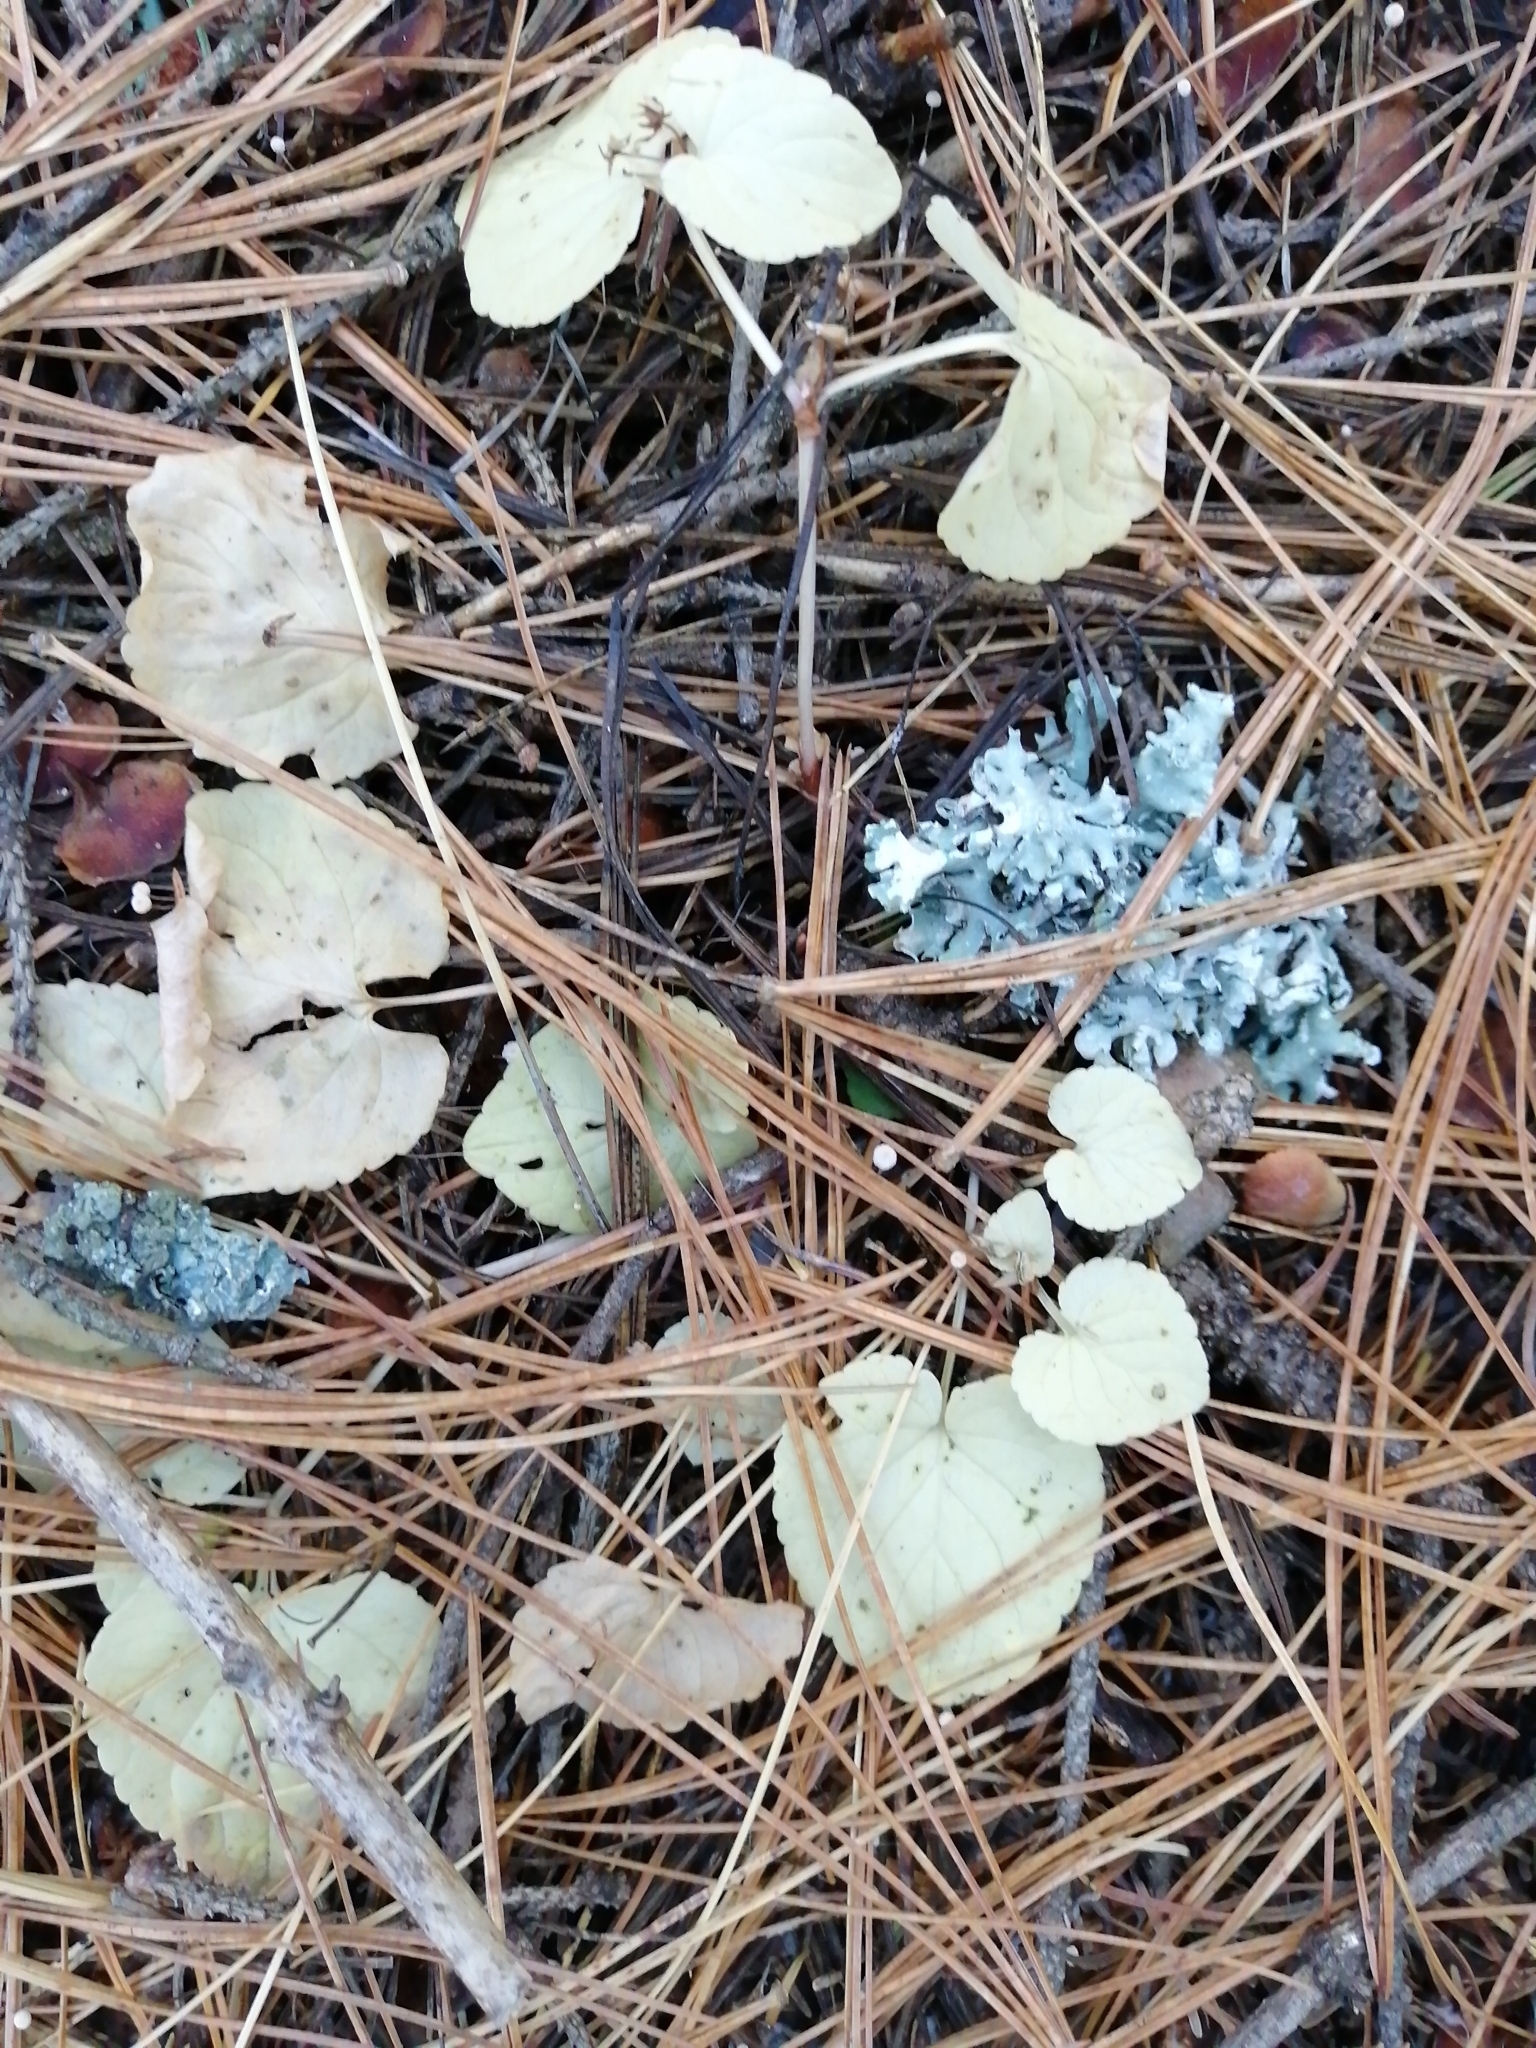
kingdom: Plantae
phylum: Tracheophyta
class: Magnoliopsida
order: Malpighiales
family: Violaceae
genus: Viola
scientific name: Viola rupestris
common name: Teesdale violet
